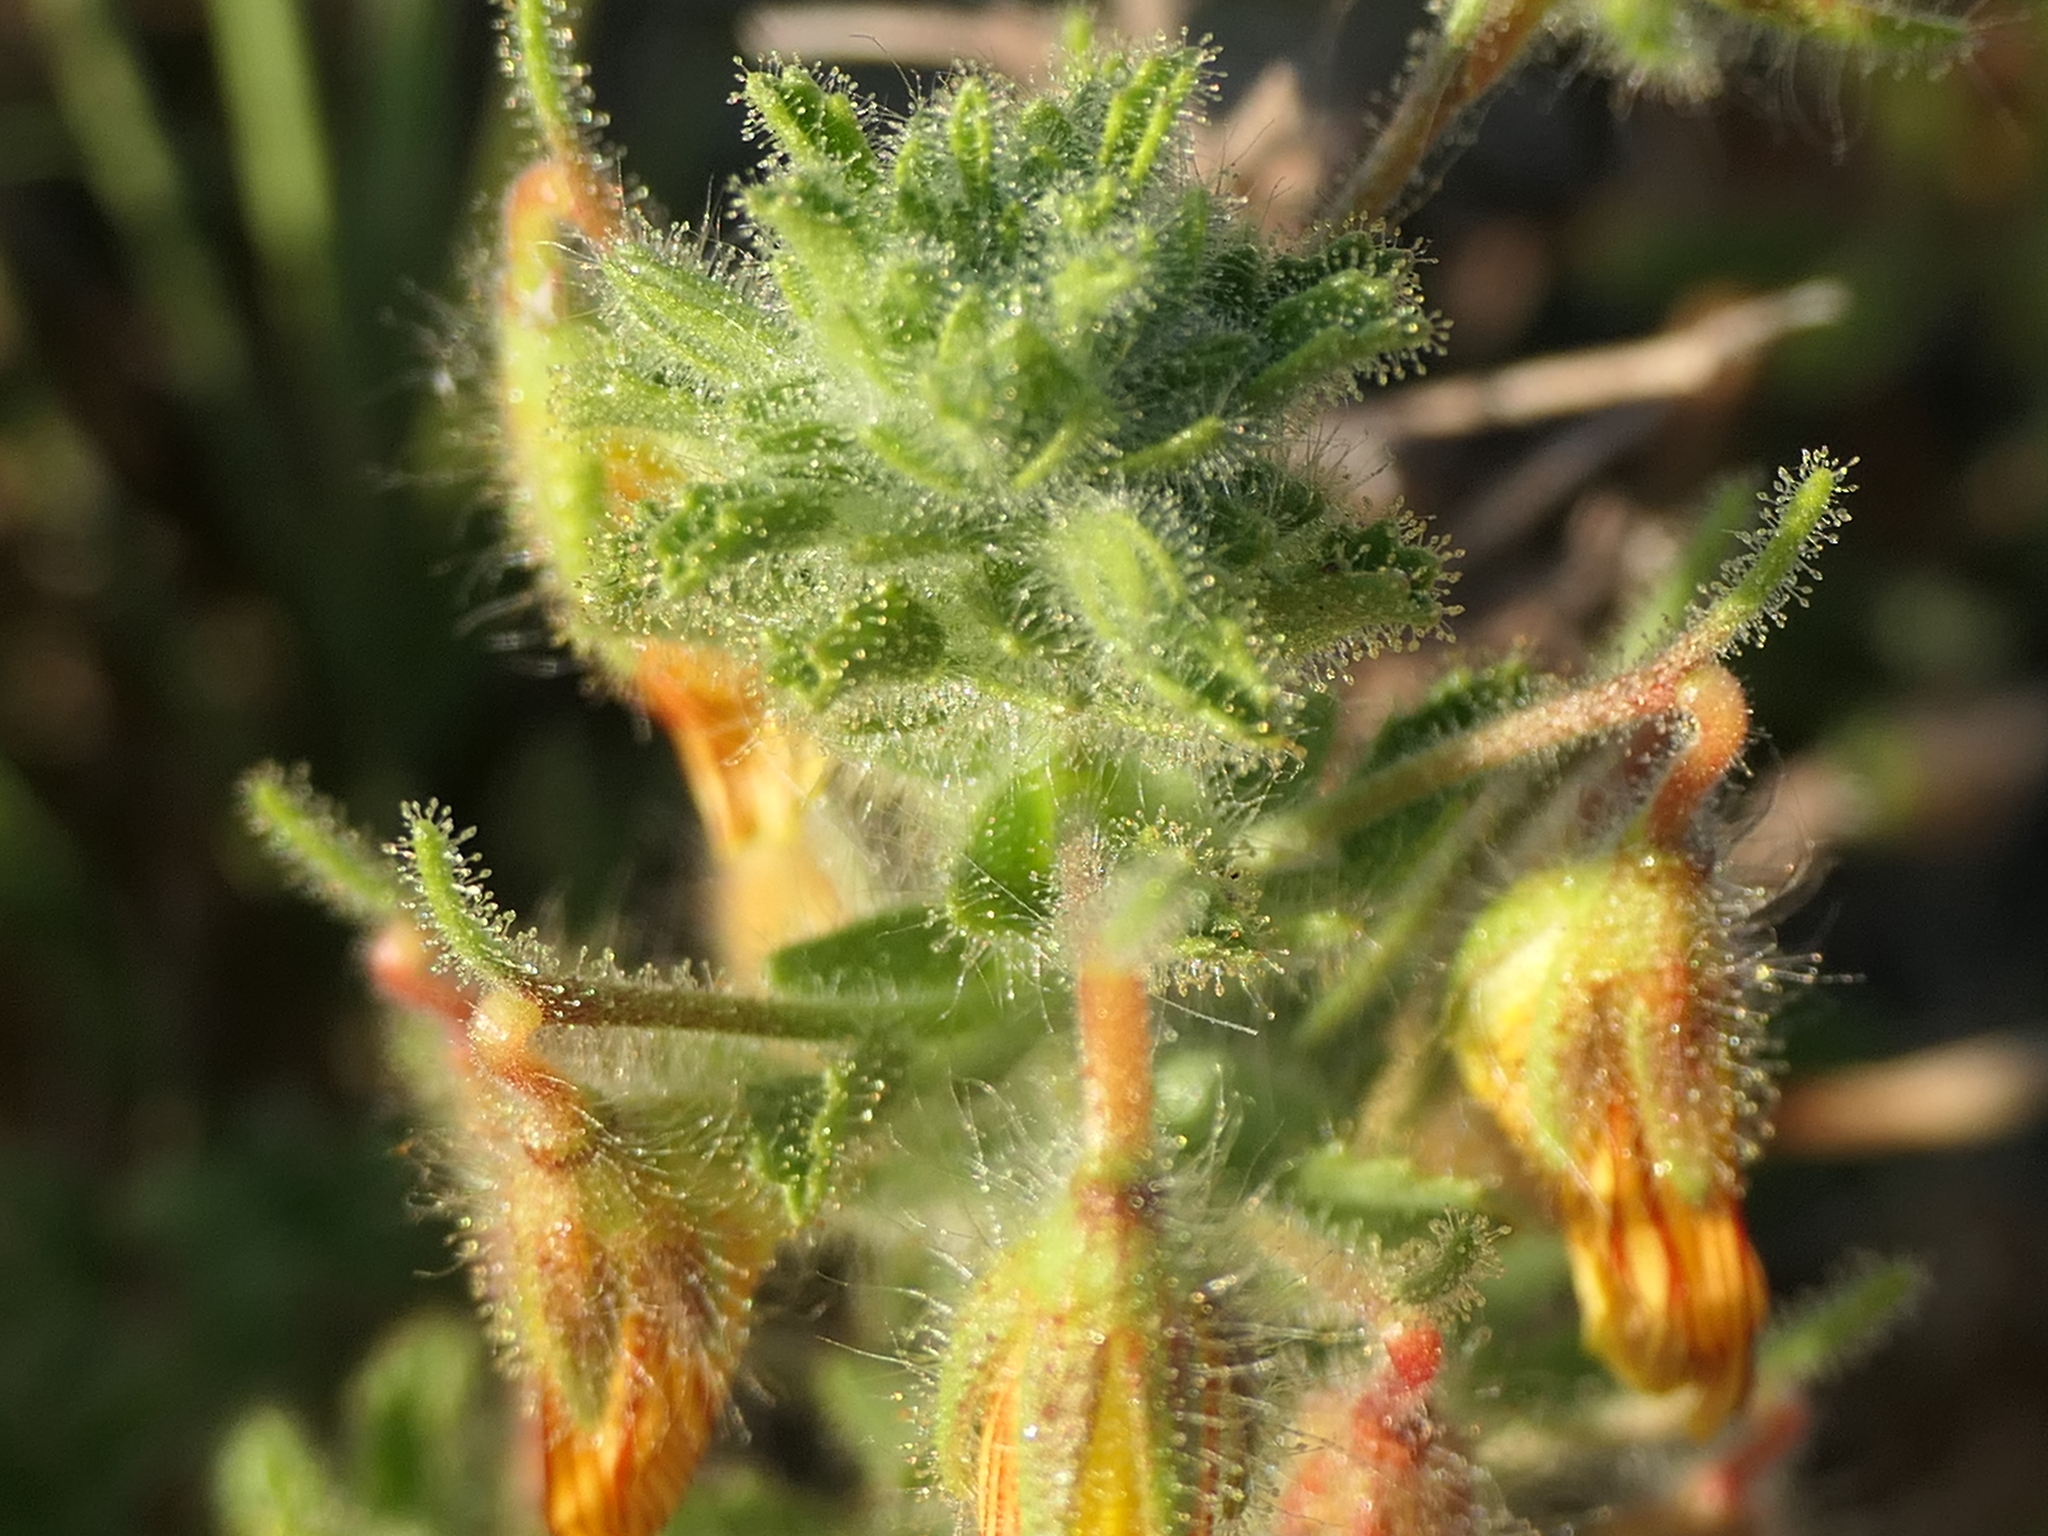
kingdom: Plantae
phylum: Tracheophyta
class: Magnoliopsida
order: Fabales
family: Fabaceae
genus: Ononis
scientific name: Ononis natrix
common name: Yellow restharrow
